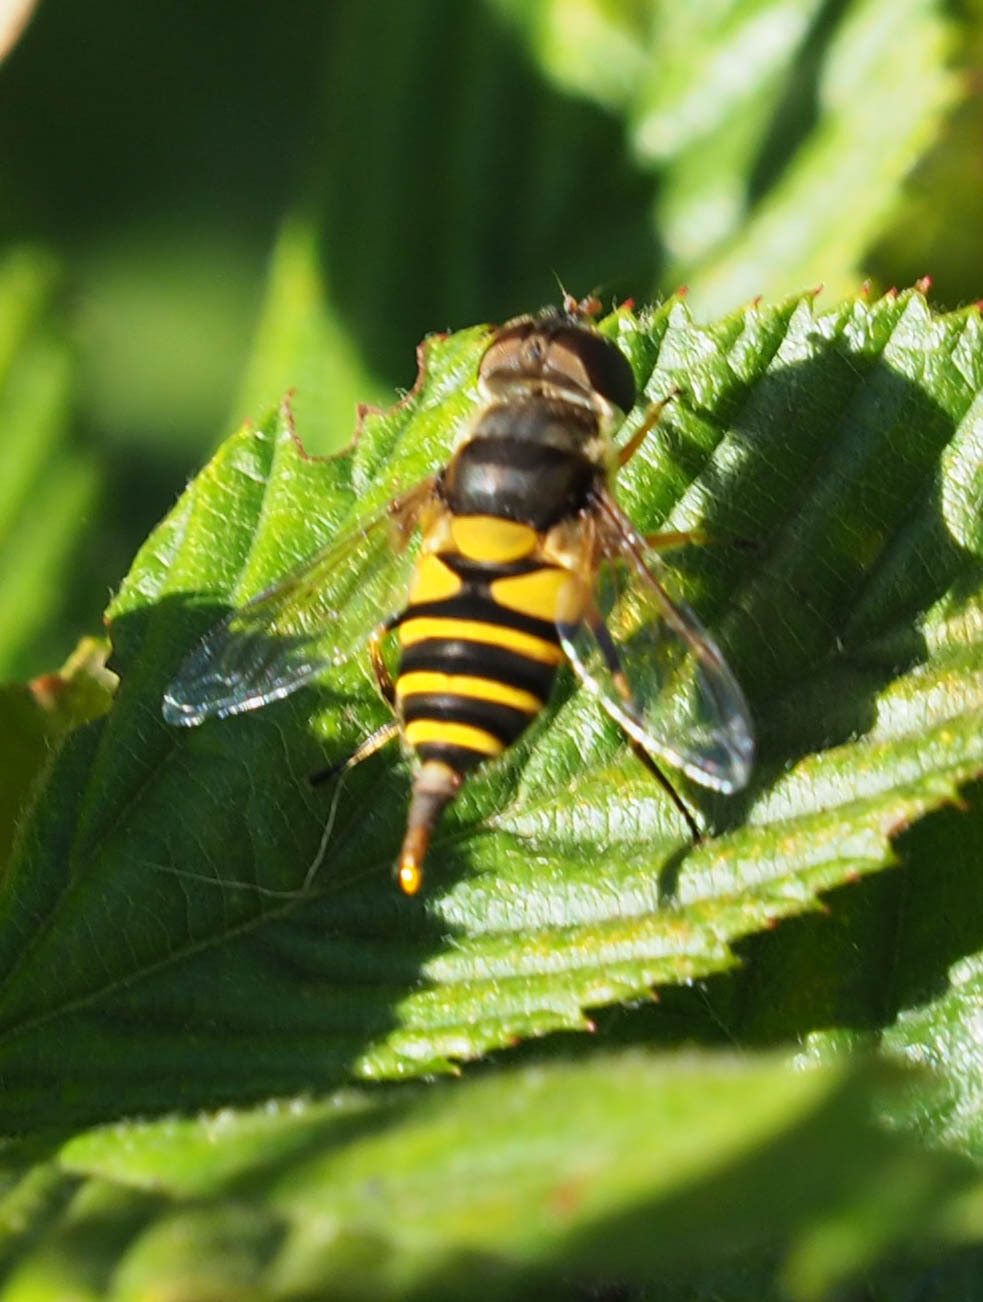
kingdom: Animalia
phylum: Arthropoda
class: Insecta
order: Diptera
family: Syrphidae
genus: Eristalis
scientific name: Eristalis transversa
